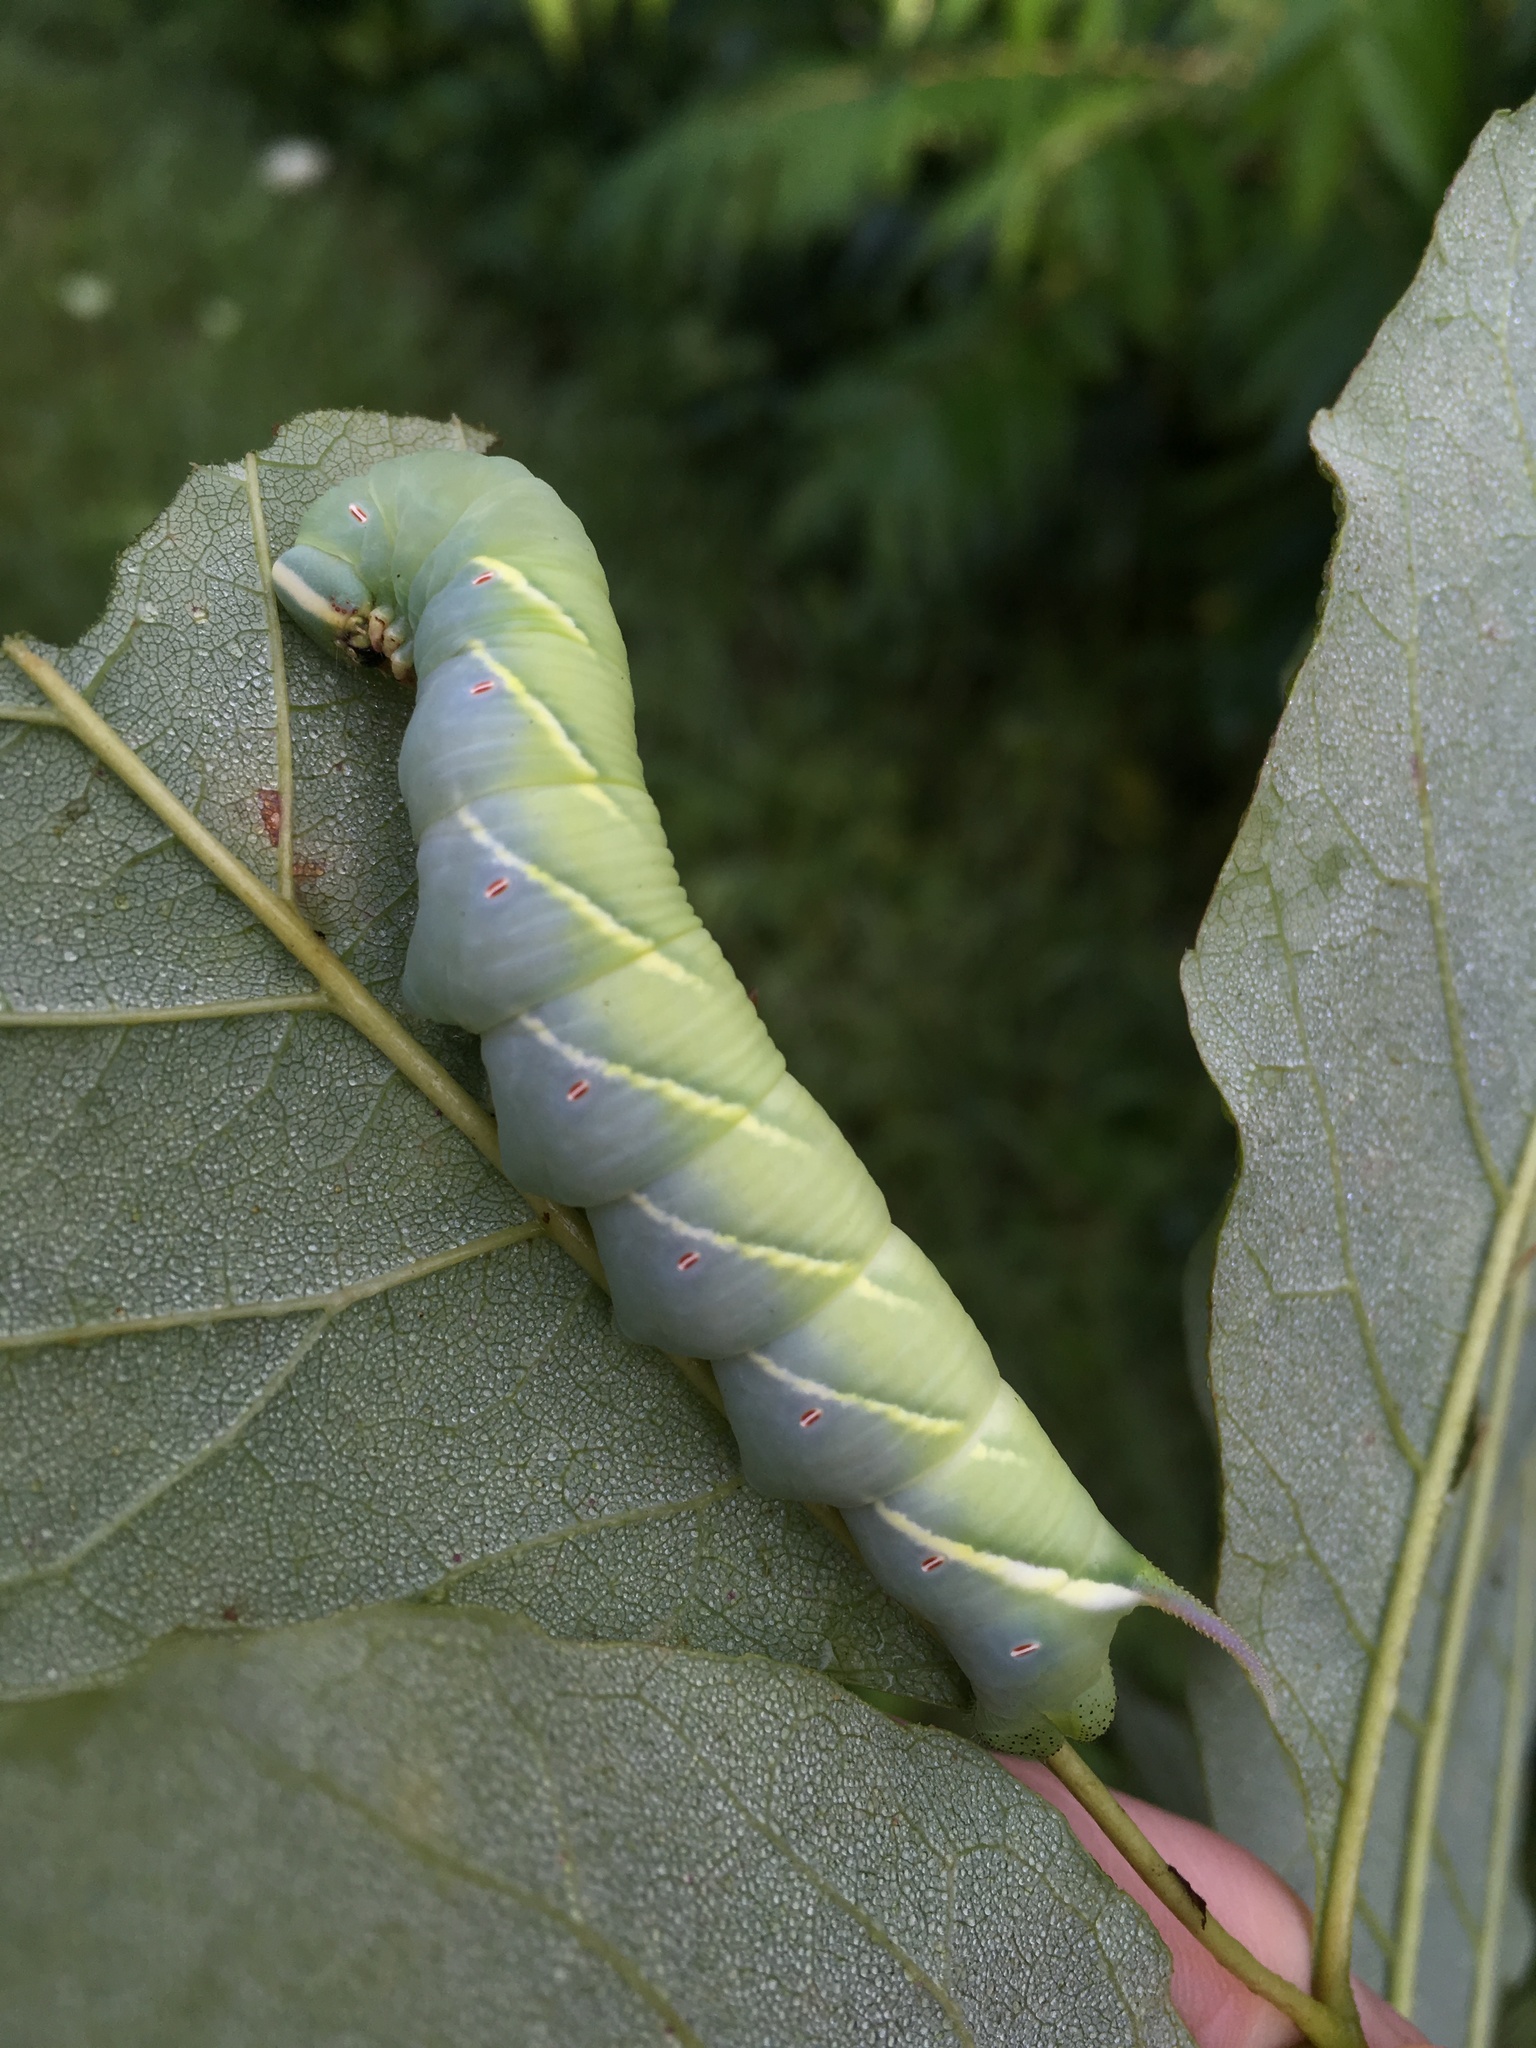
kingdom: Animalia
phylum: Arthropoda
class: Insecta
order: Lepidoptera
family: Sphingidae
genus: Ceratomia
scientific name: Ceratomia undulosa
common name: Waved sphinx
